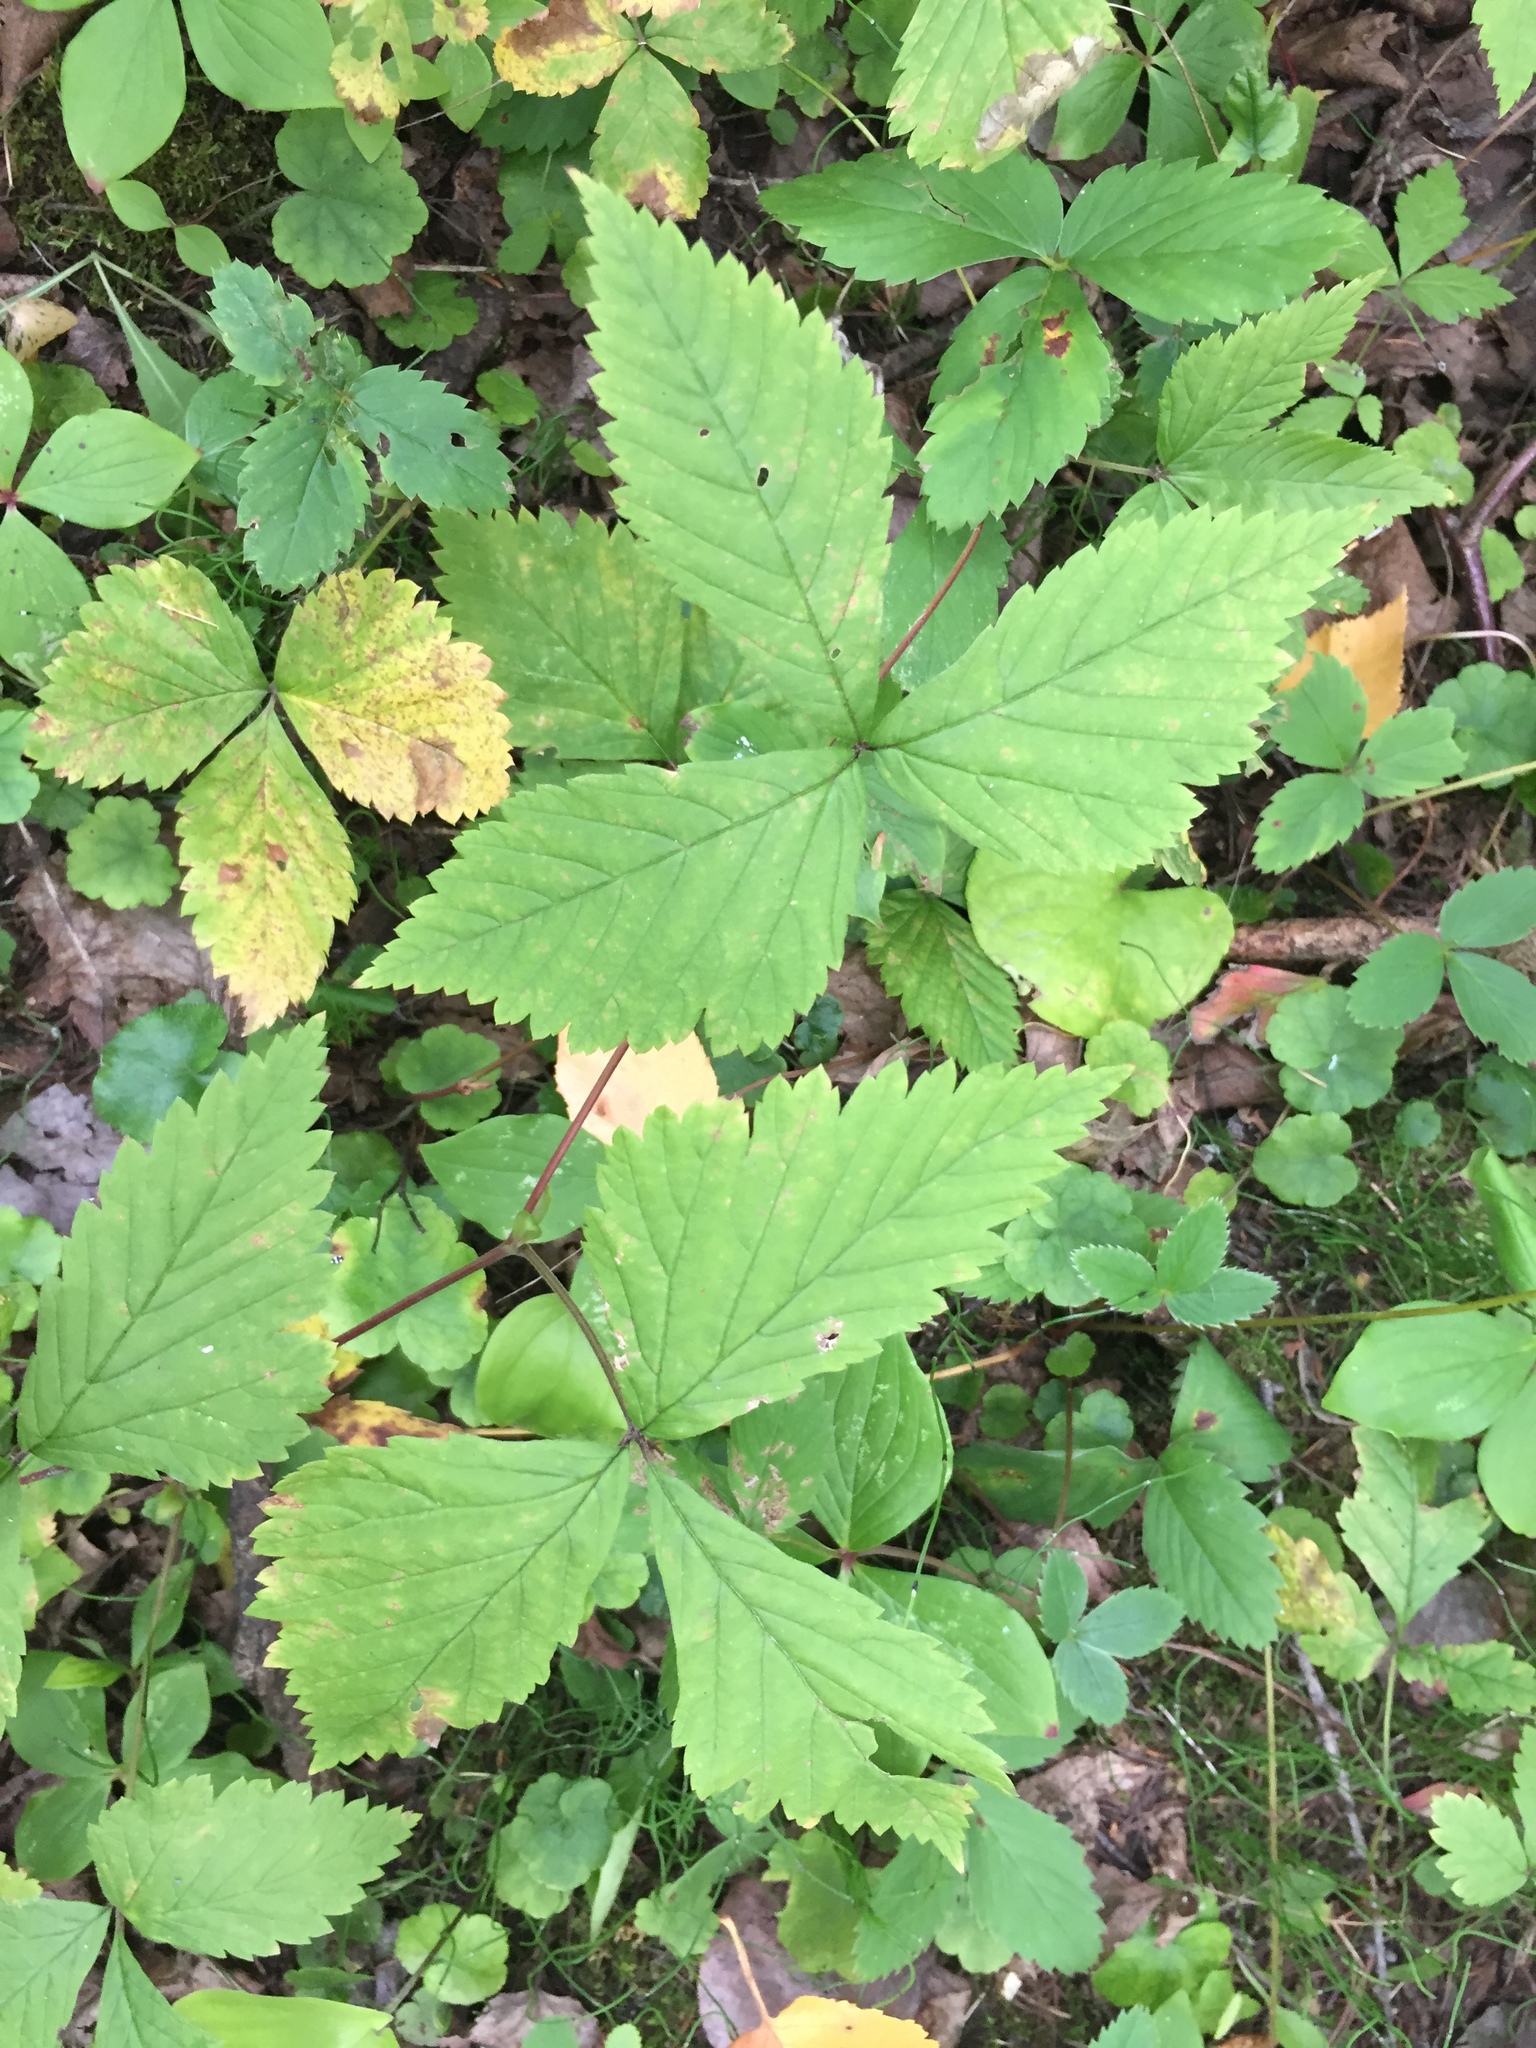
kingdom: Plantae
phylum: Tracheophyta
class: Magnoliopsida
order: Rosales
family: Rosaceae
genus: Rubus
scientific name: Rubus pubescens
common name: Dwarf raspberry
